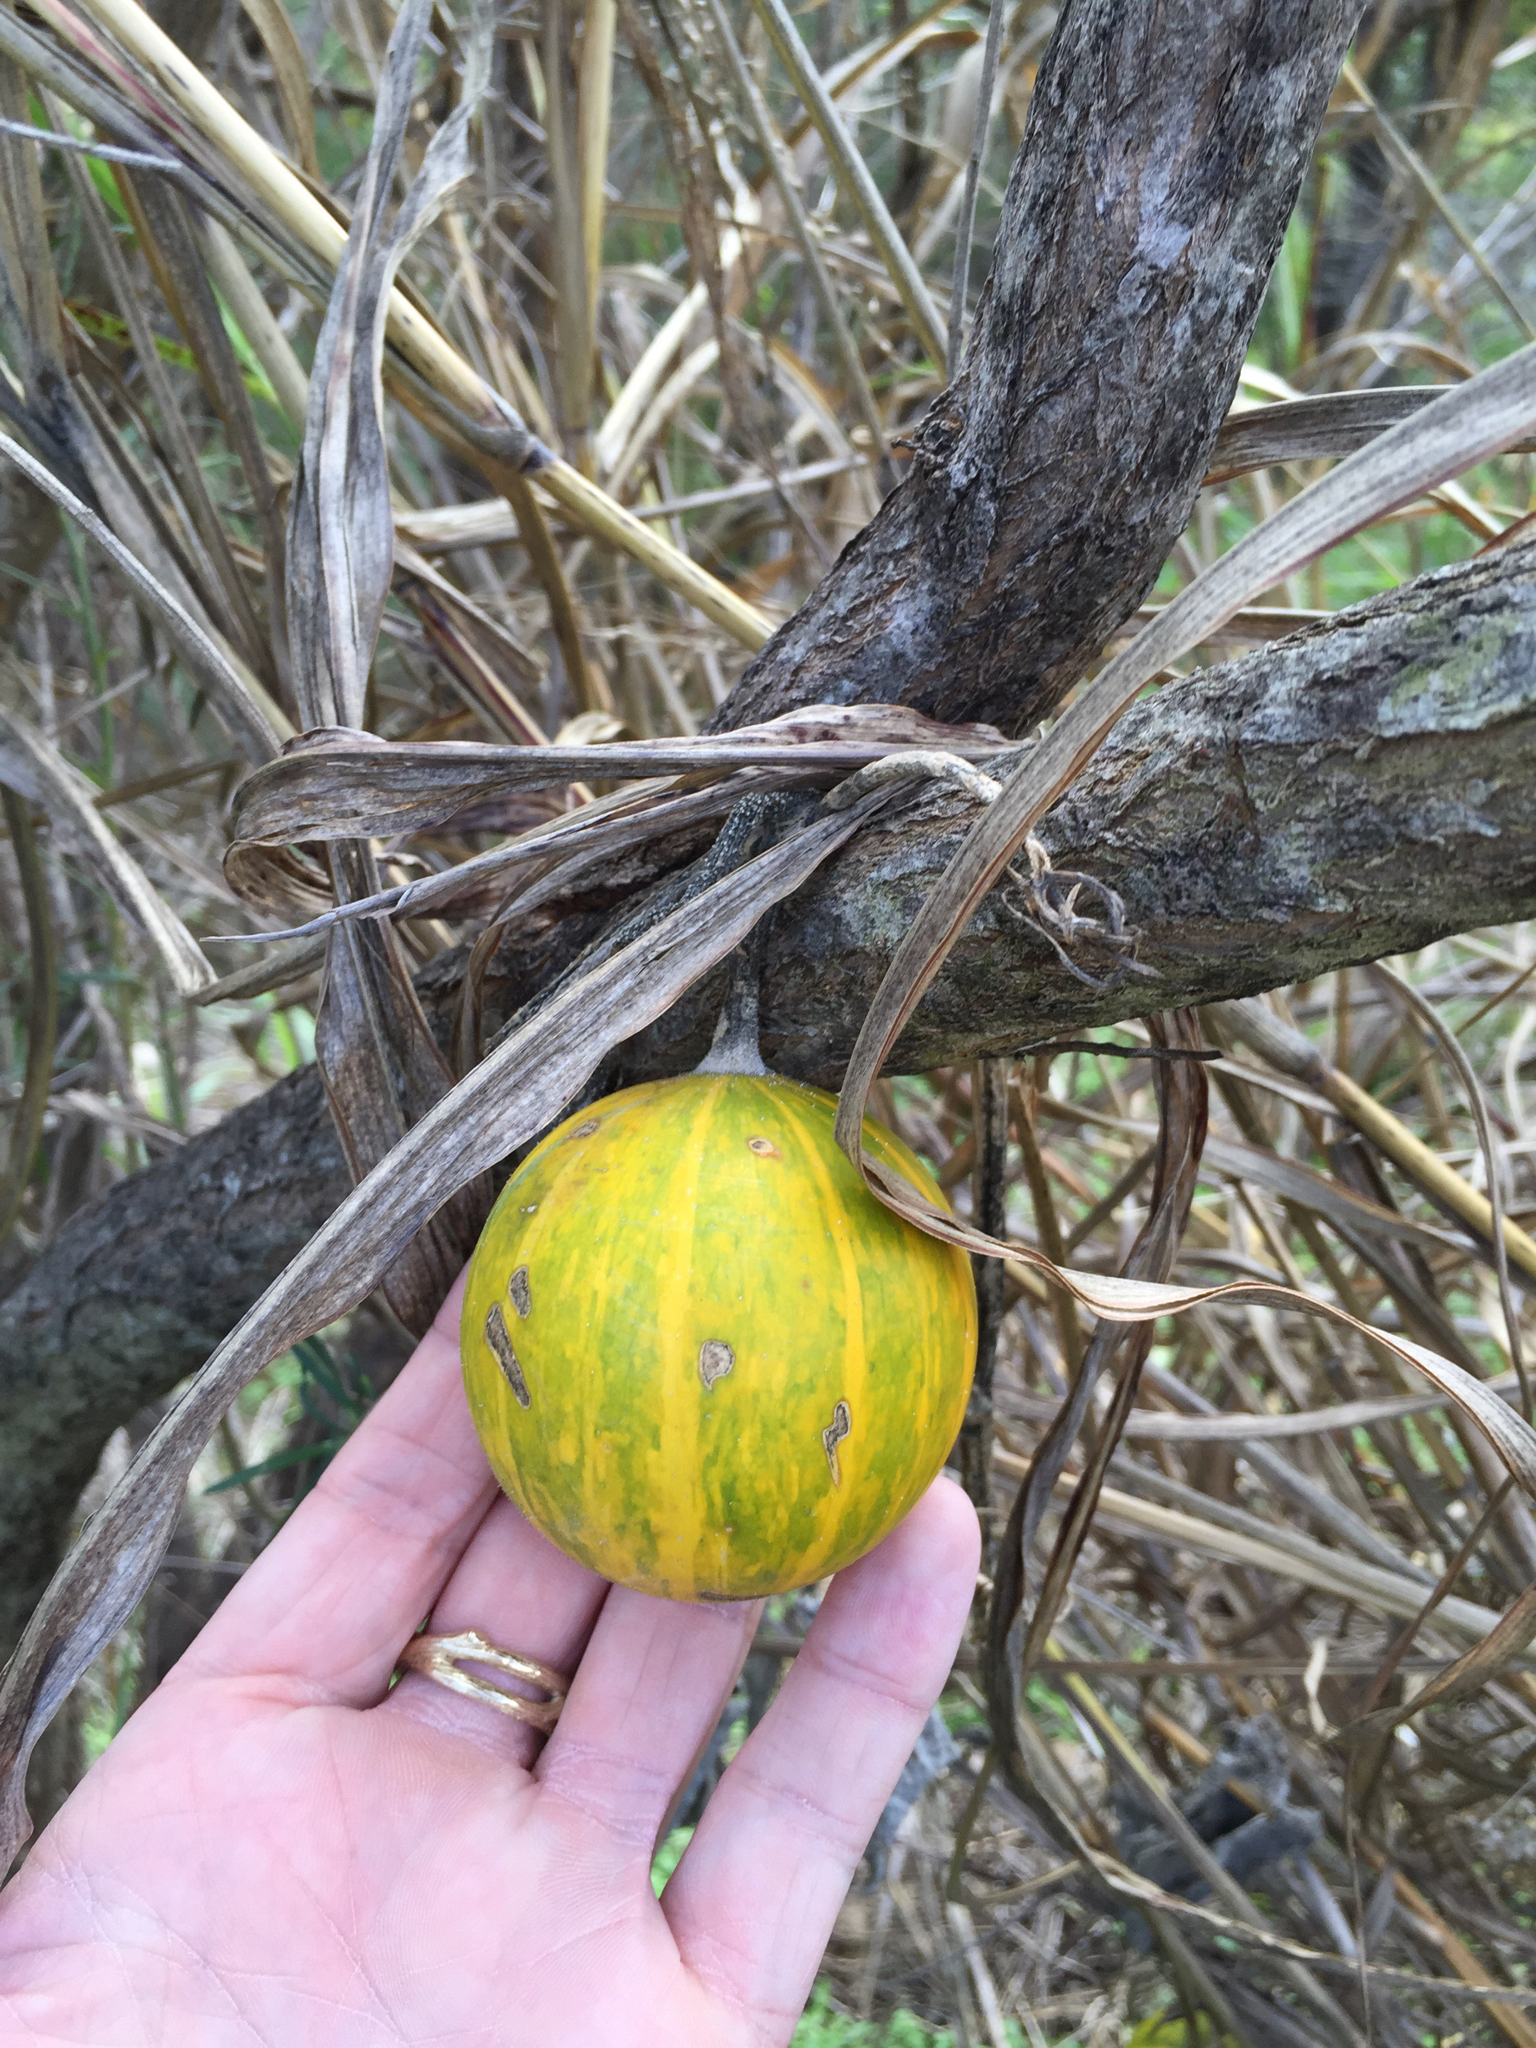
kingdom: Plantae
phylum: Tracheophyta
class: Magnoliopsida
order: Cucurbitales
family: Cucurbitaceae
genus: Cucurbita
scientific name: Cucurbita foetidissima
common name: Buffalo gourd
